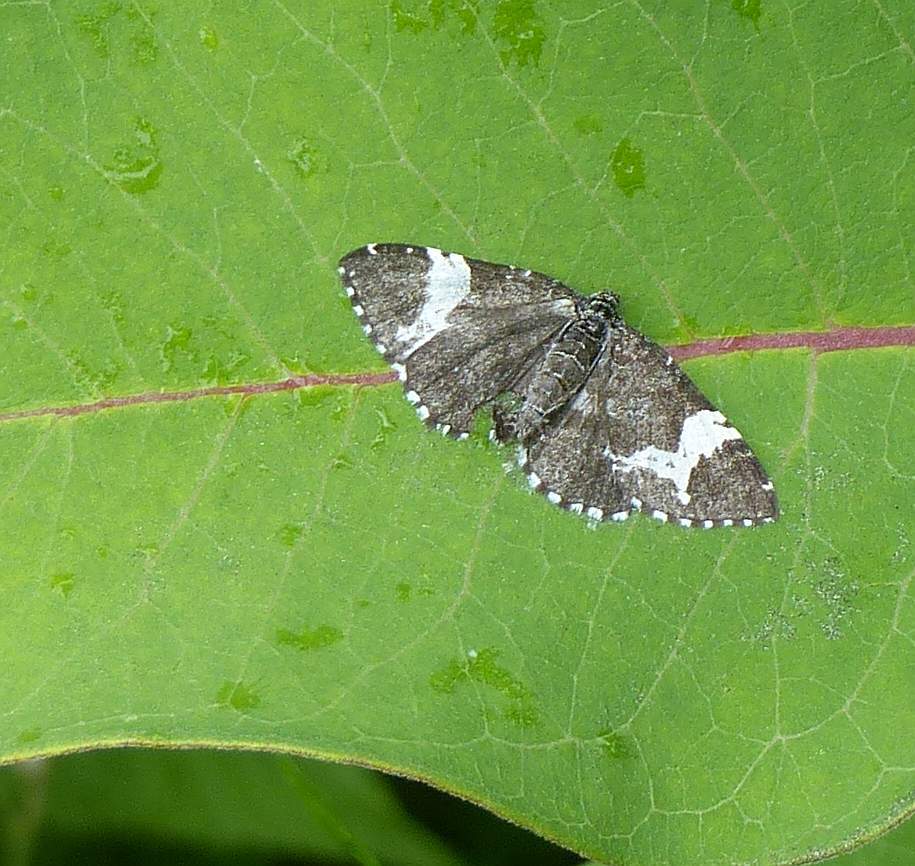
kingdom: Animalia
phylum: Arthropoda
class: Insecta
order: Lepidoptera
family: Geometridae
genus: Rheumaptera
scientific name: Rheumaptera
